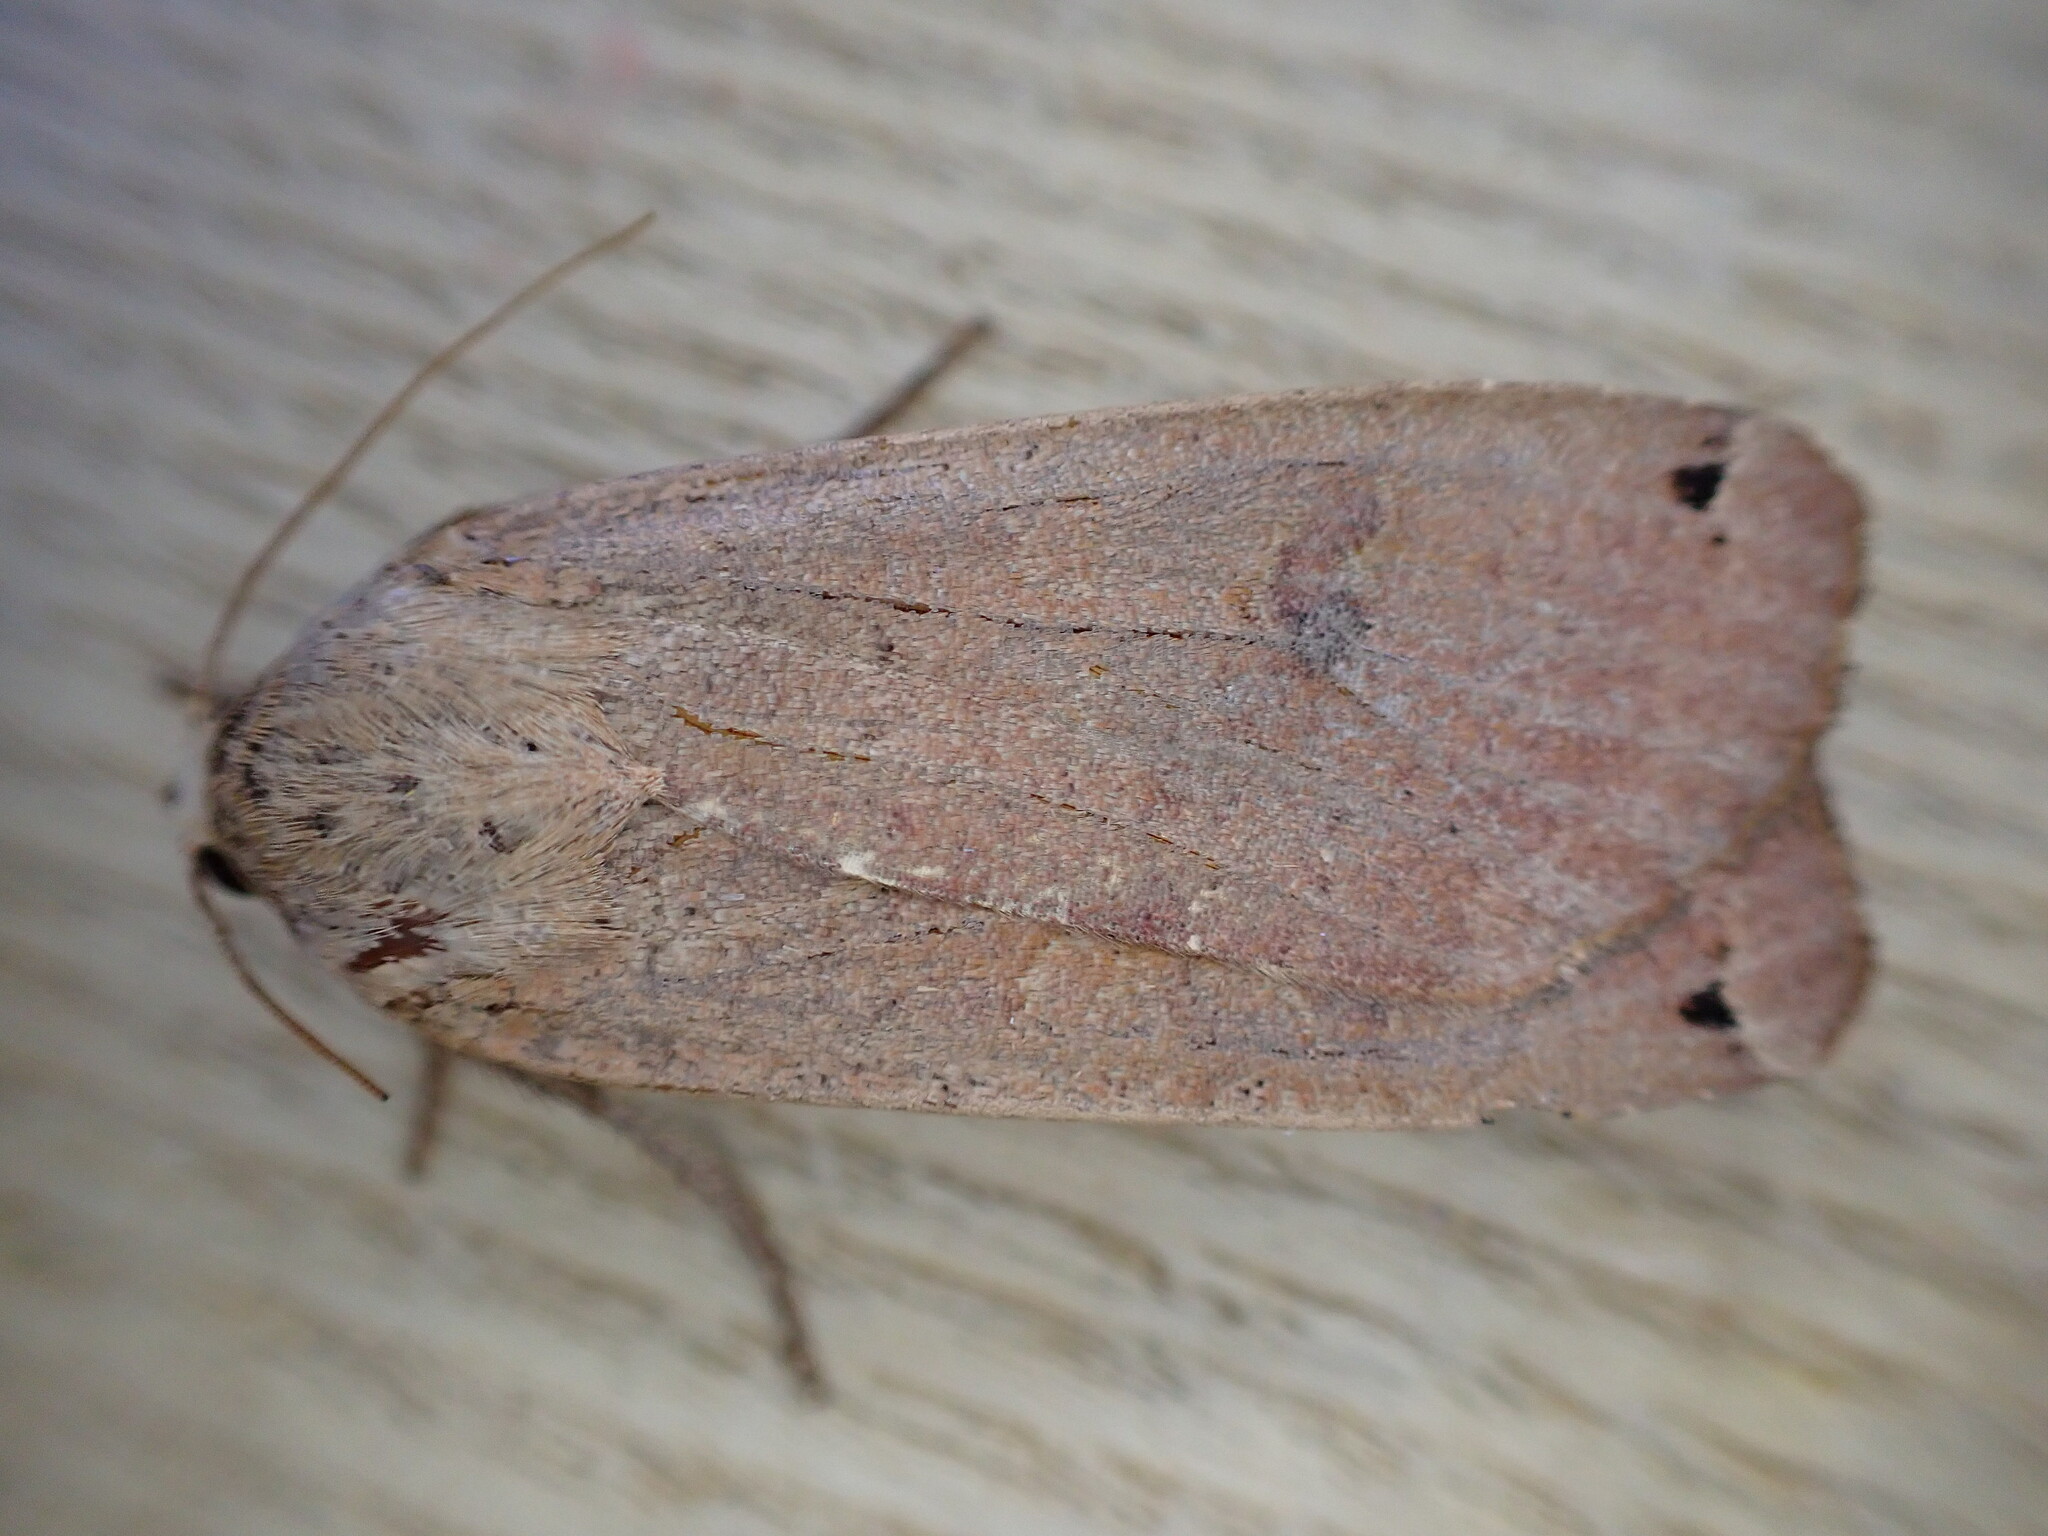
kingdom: Animalia
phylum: Arthropoda
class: Insecta
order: Lepidoptera
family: Noctuidae
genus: Noctua
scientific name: Noctua pronuba
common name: Large yellow underwing
